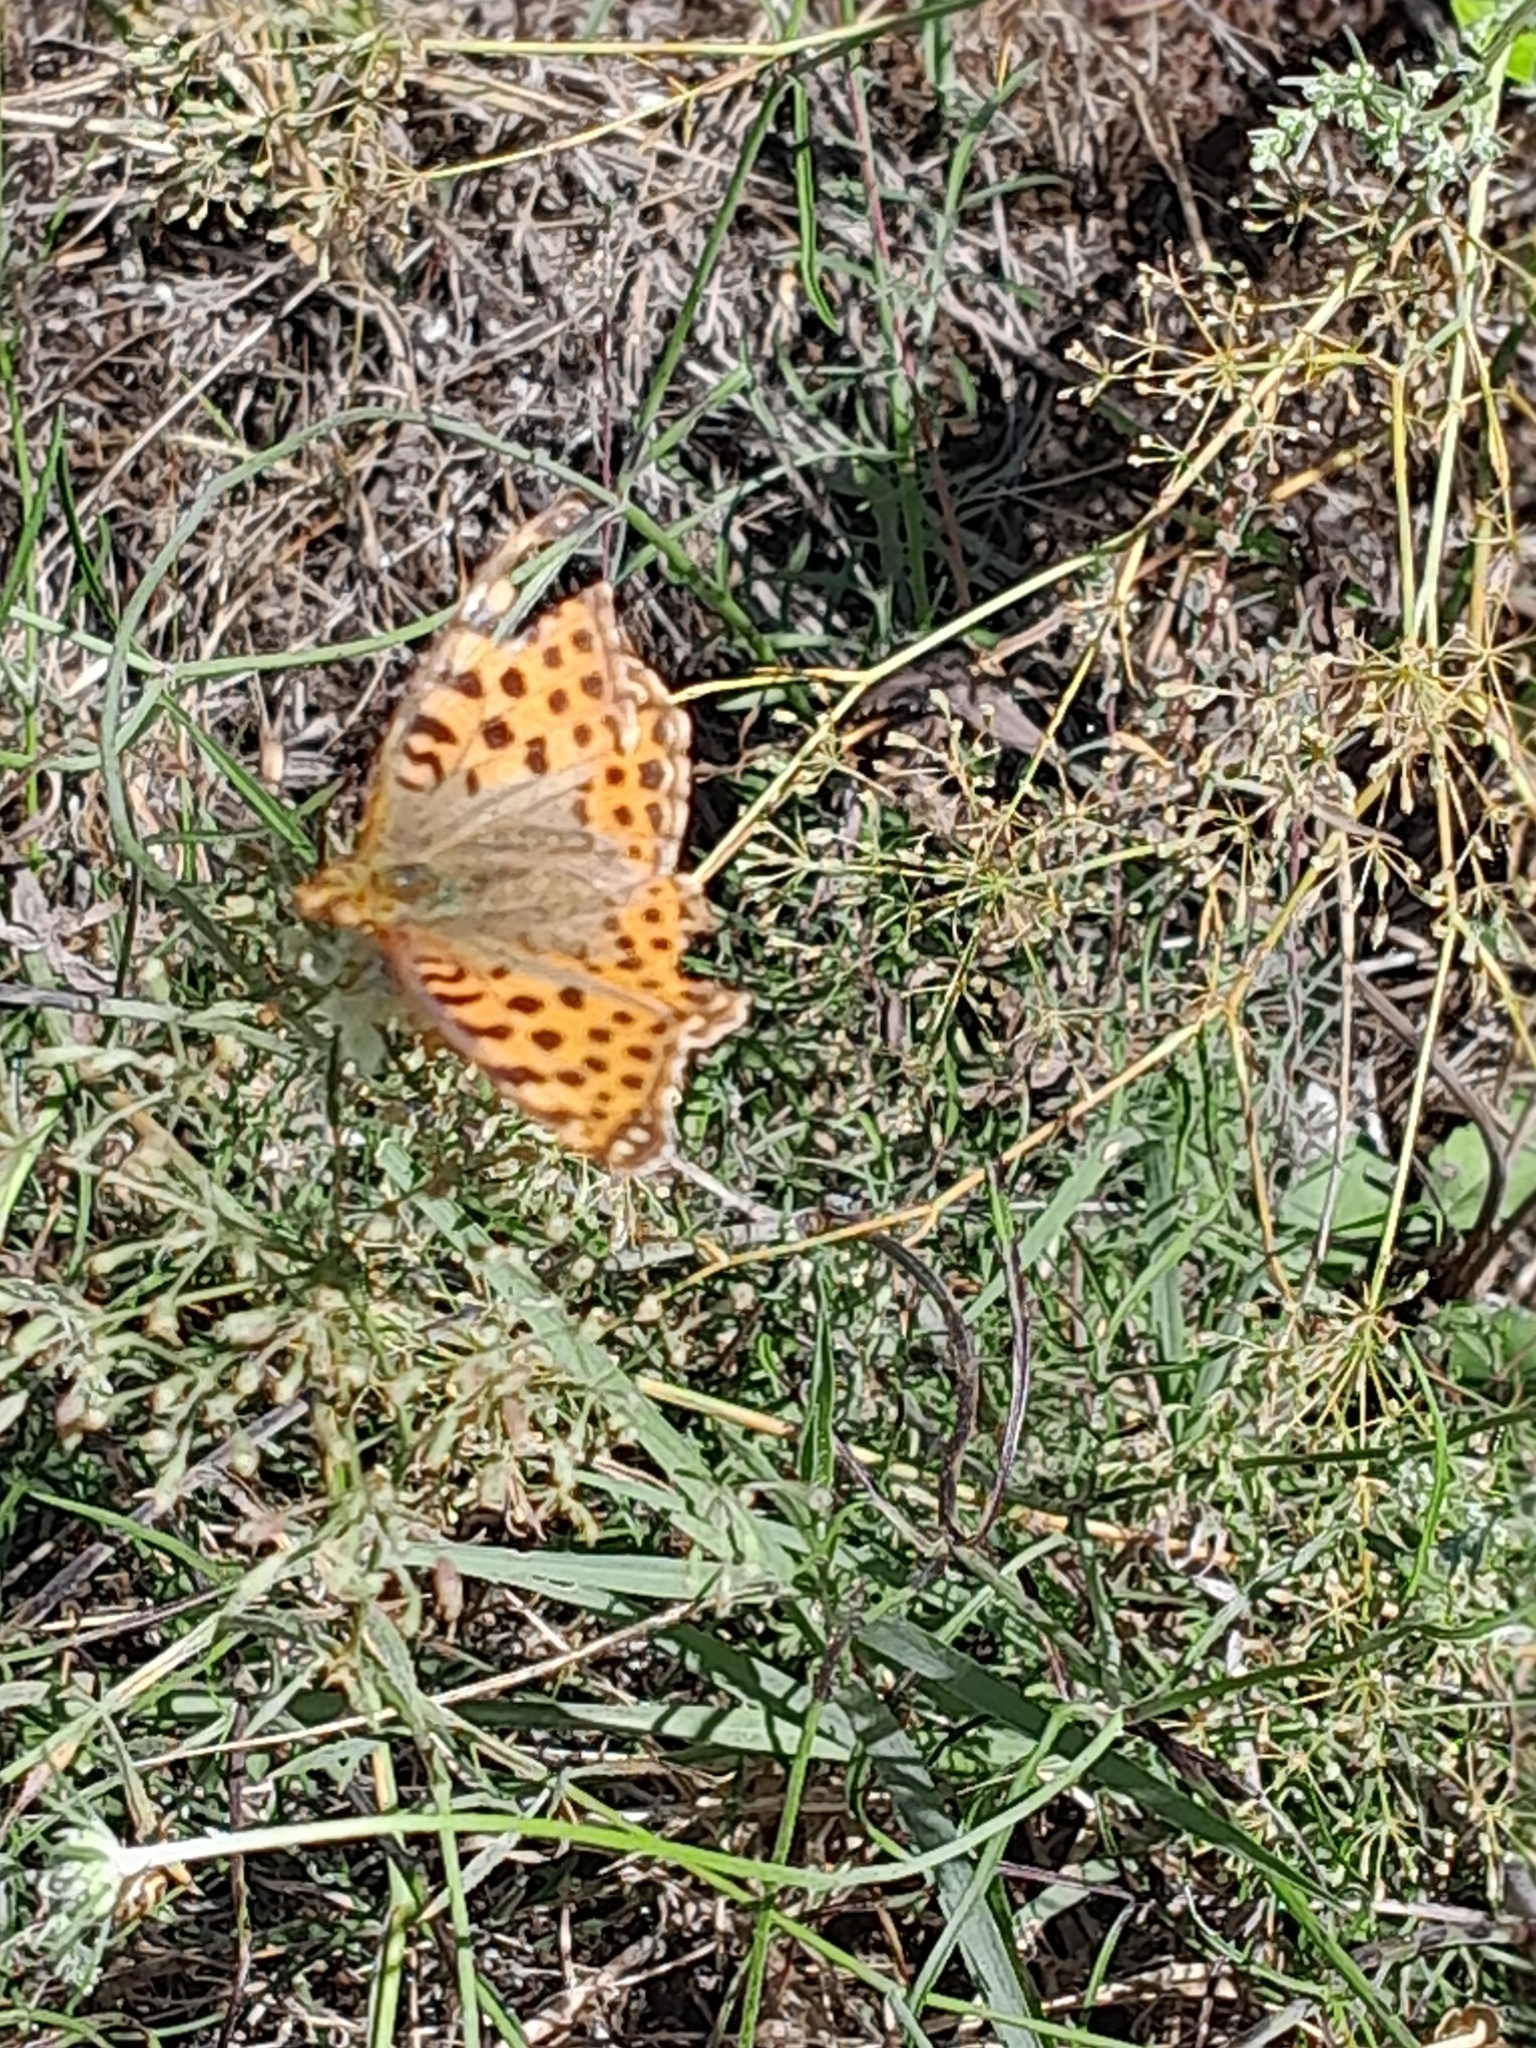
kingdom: Animalia
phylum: Arthropoda
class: Insecta
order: Lepidoptera
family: Nymphalidae
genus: Issoria
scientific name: Issoria lathonia
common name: Queen of spain fritillary
